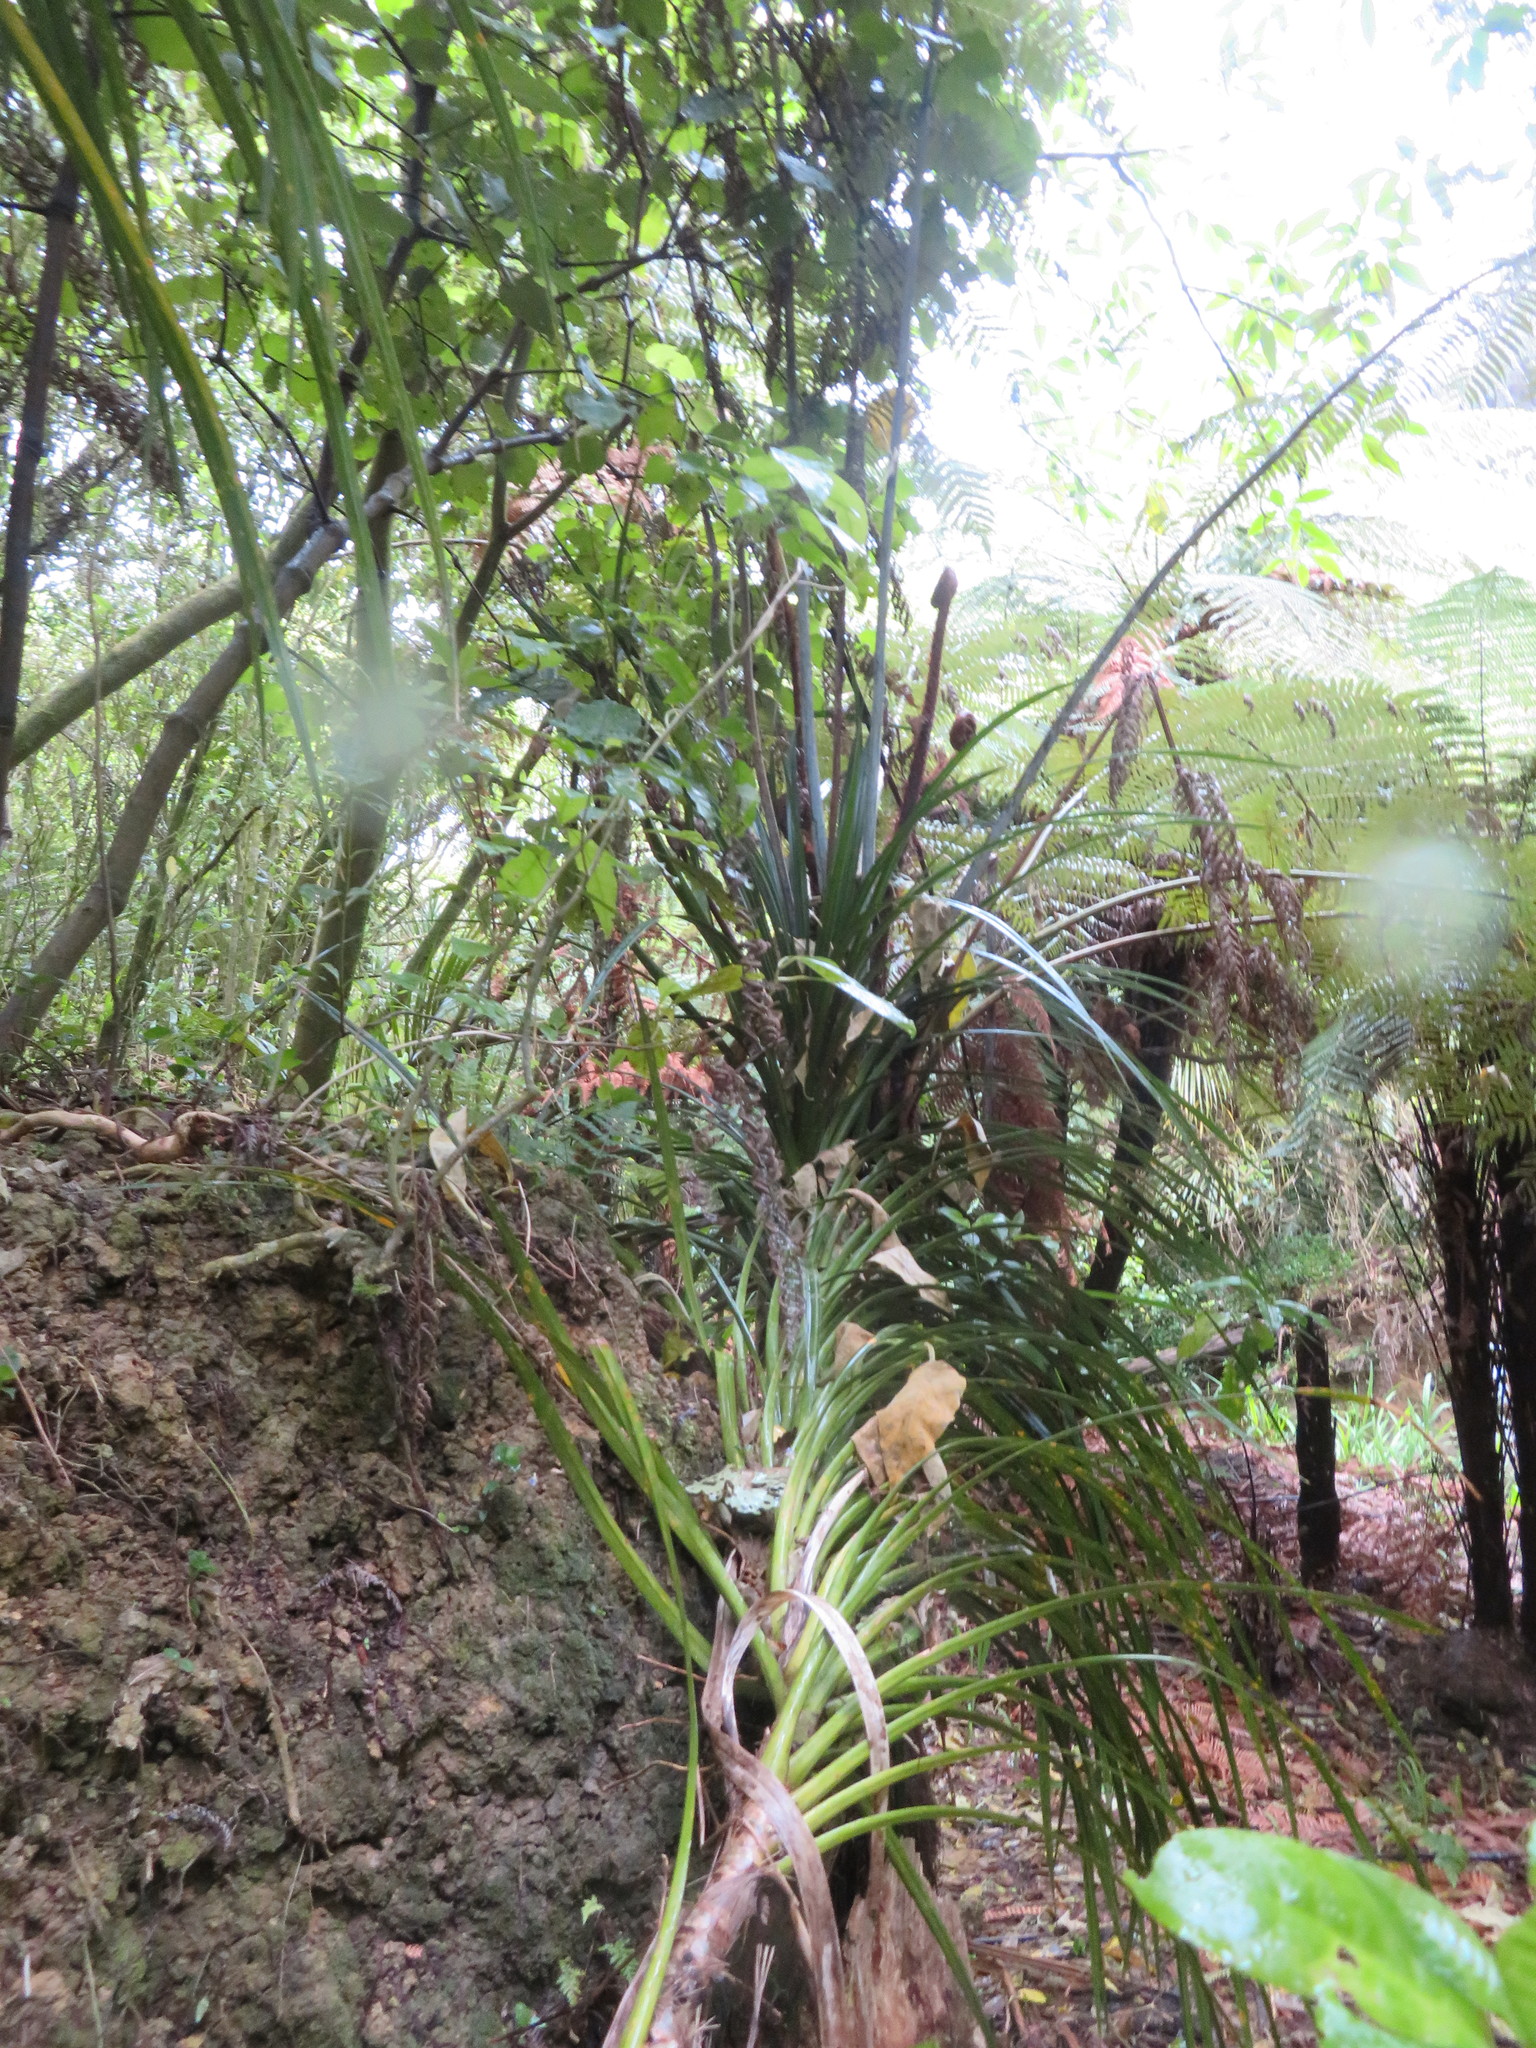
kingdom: Plantae
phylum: Tracheophyta
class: Liliopsida
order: Pandanales
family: Pandanaceae
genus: Freycinetia
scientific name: Freycinetia banksii
